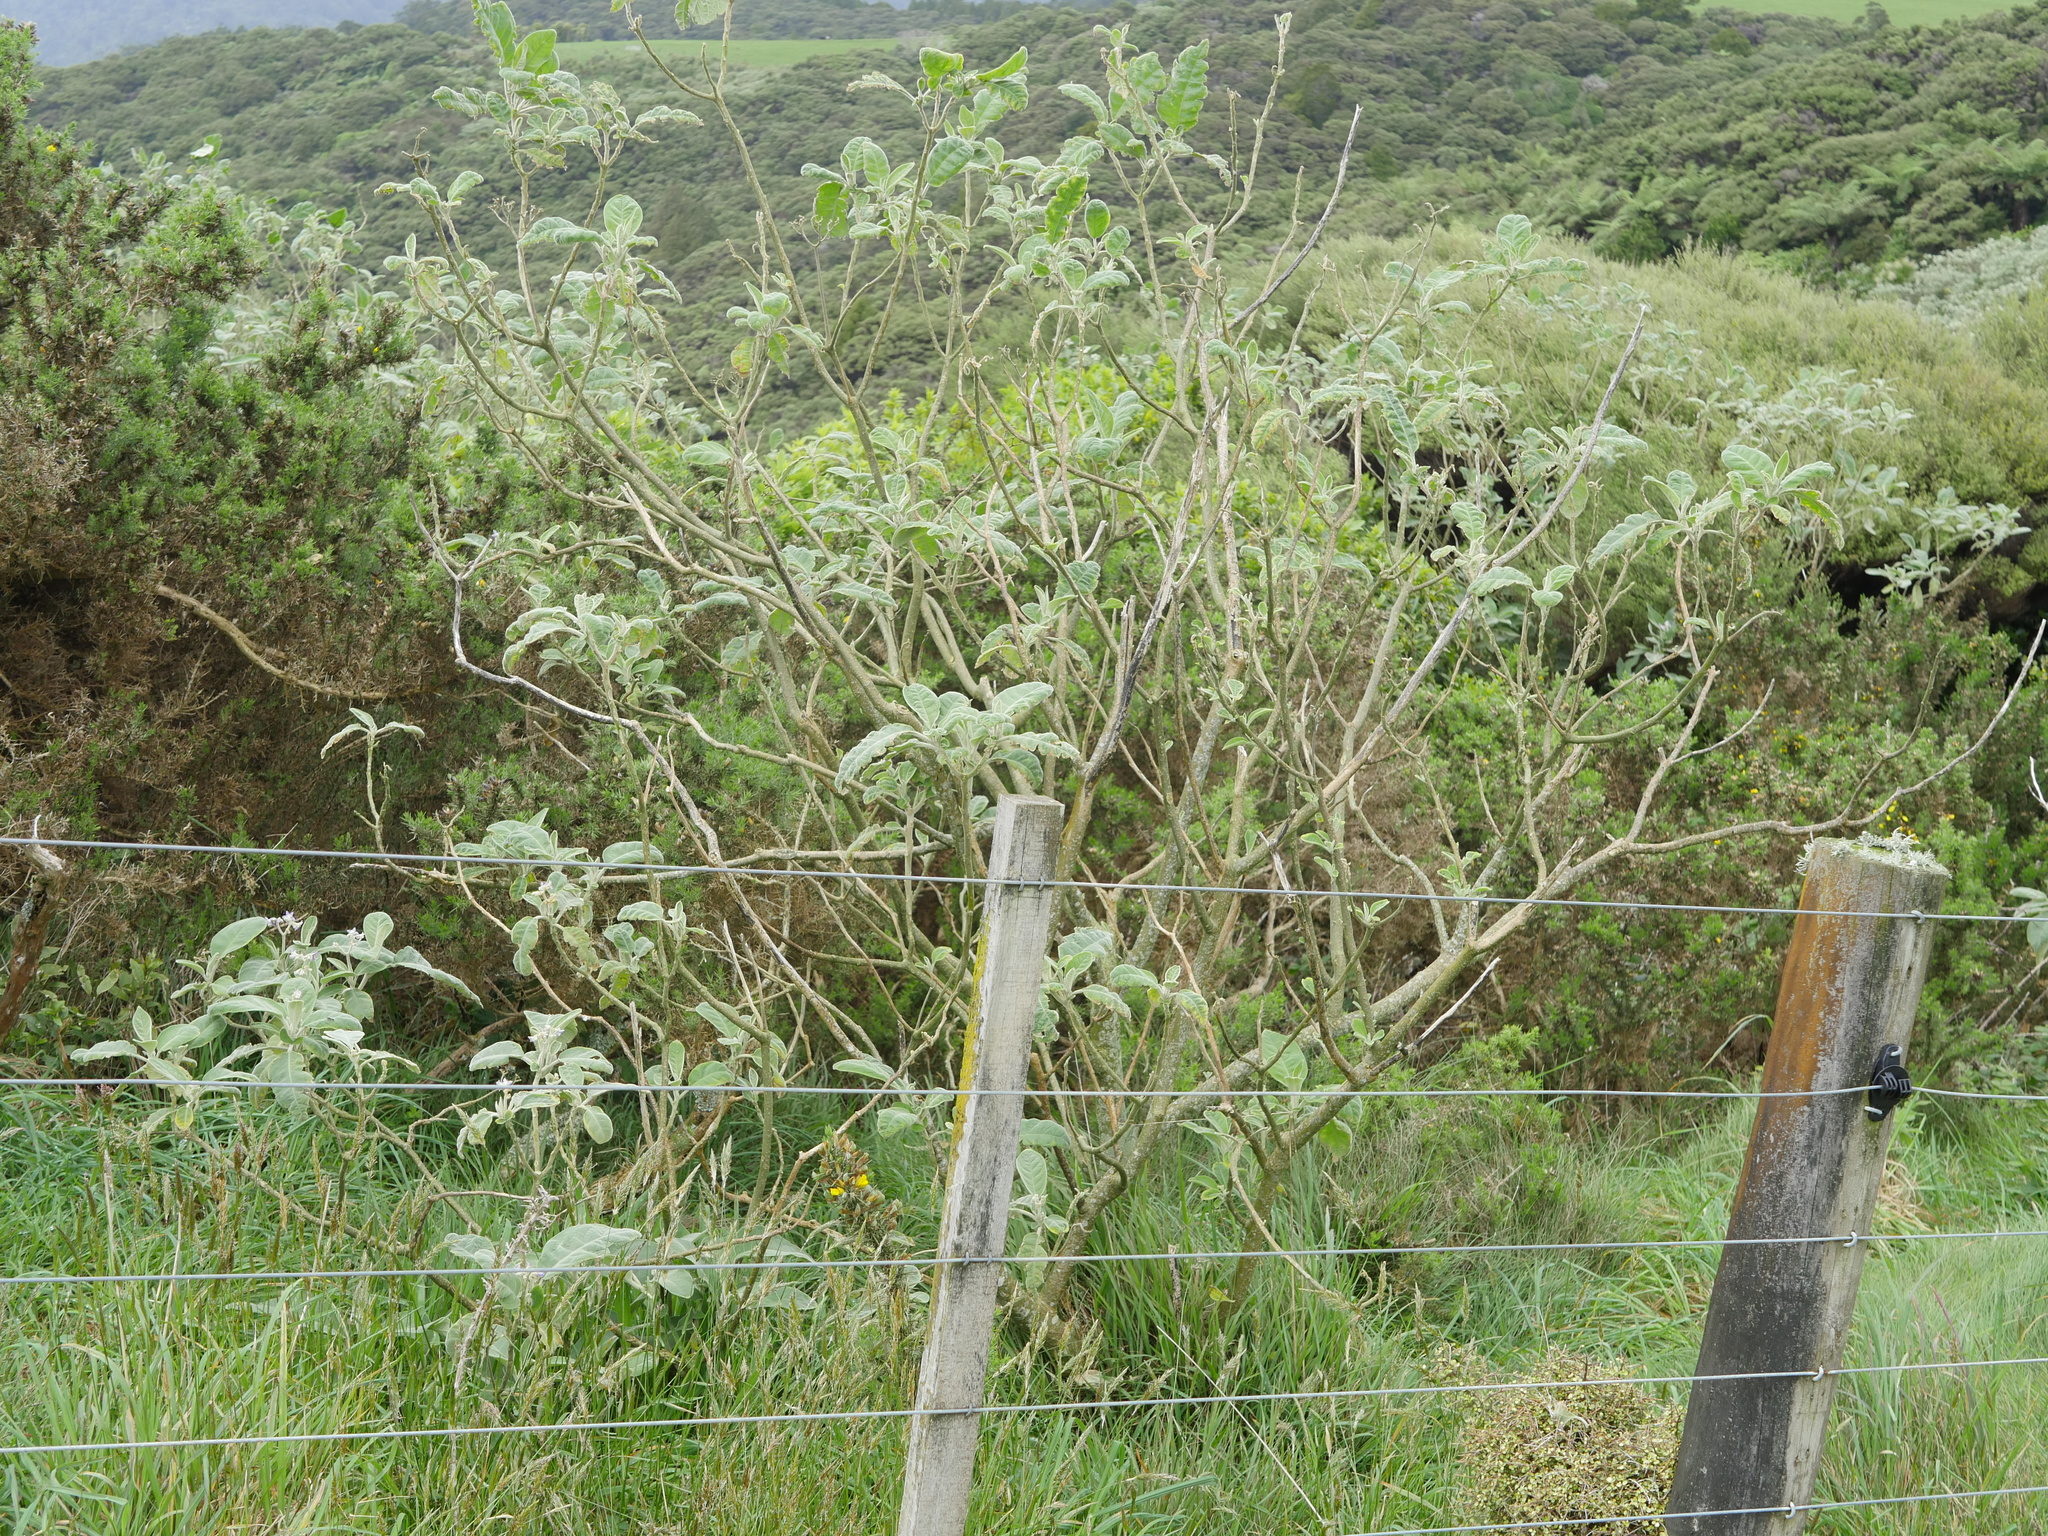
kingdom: Plantae
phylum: Tracheophyta
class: Magnoliopsida
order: Solanales
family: Solanaceae
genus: Solanum
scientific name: Solanum mauritianum
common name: Earleaf nightshade
